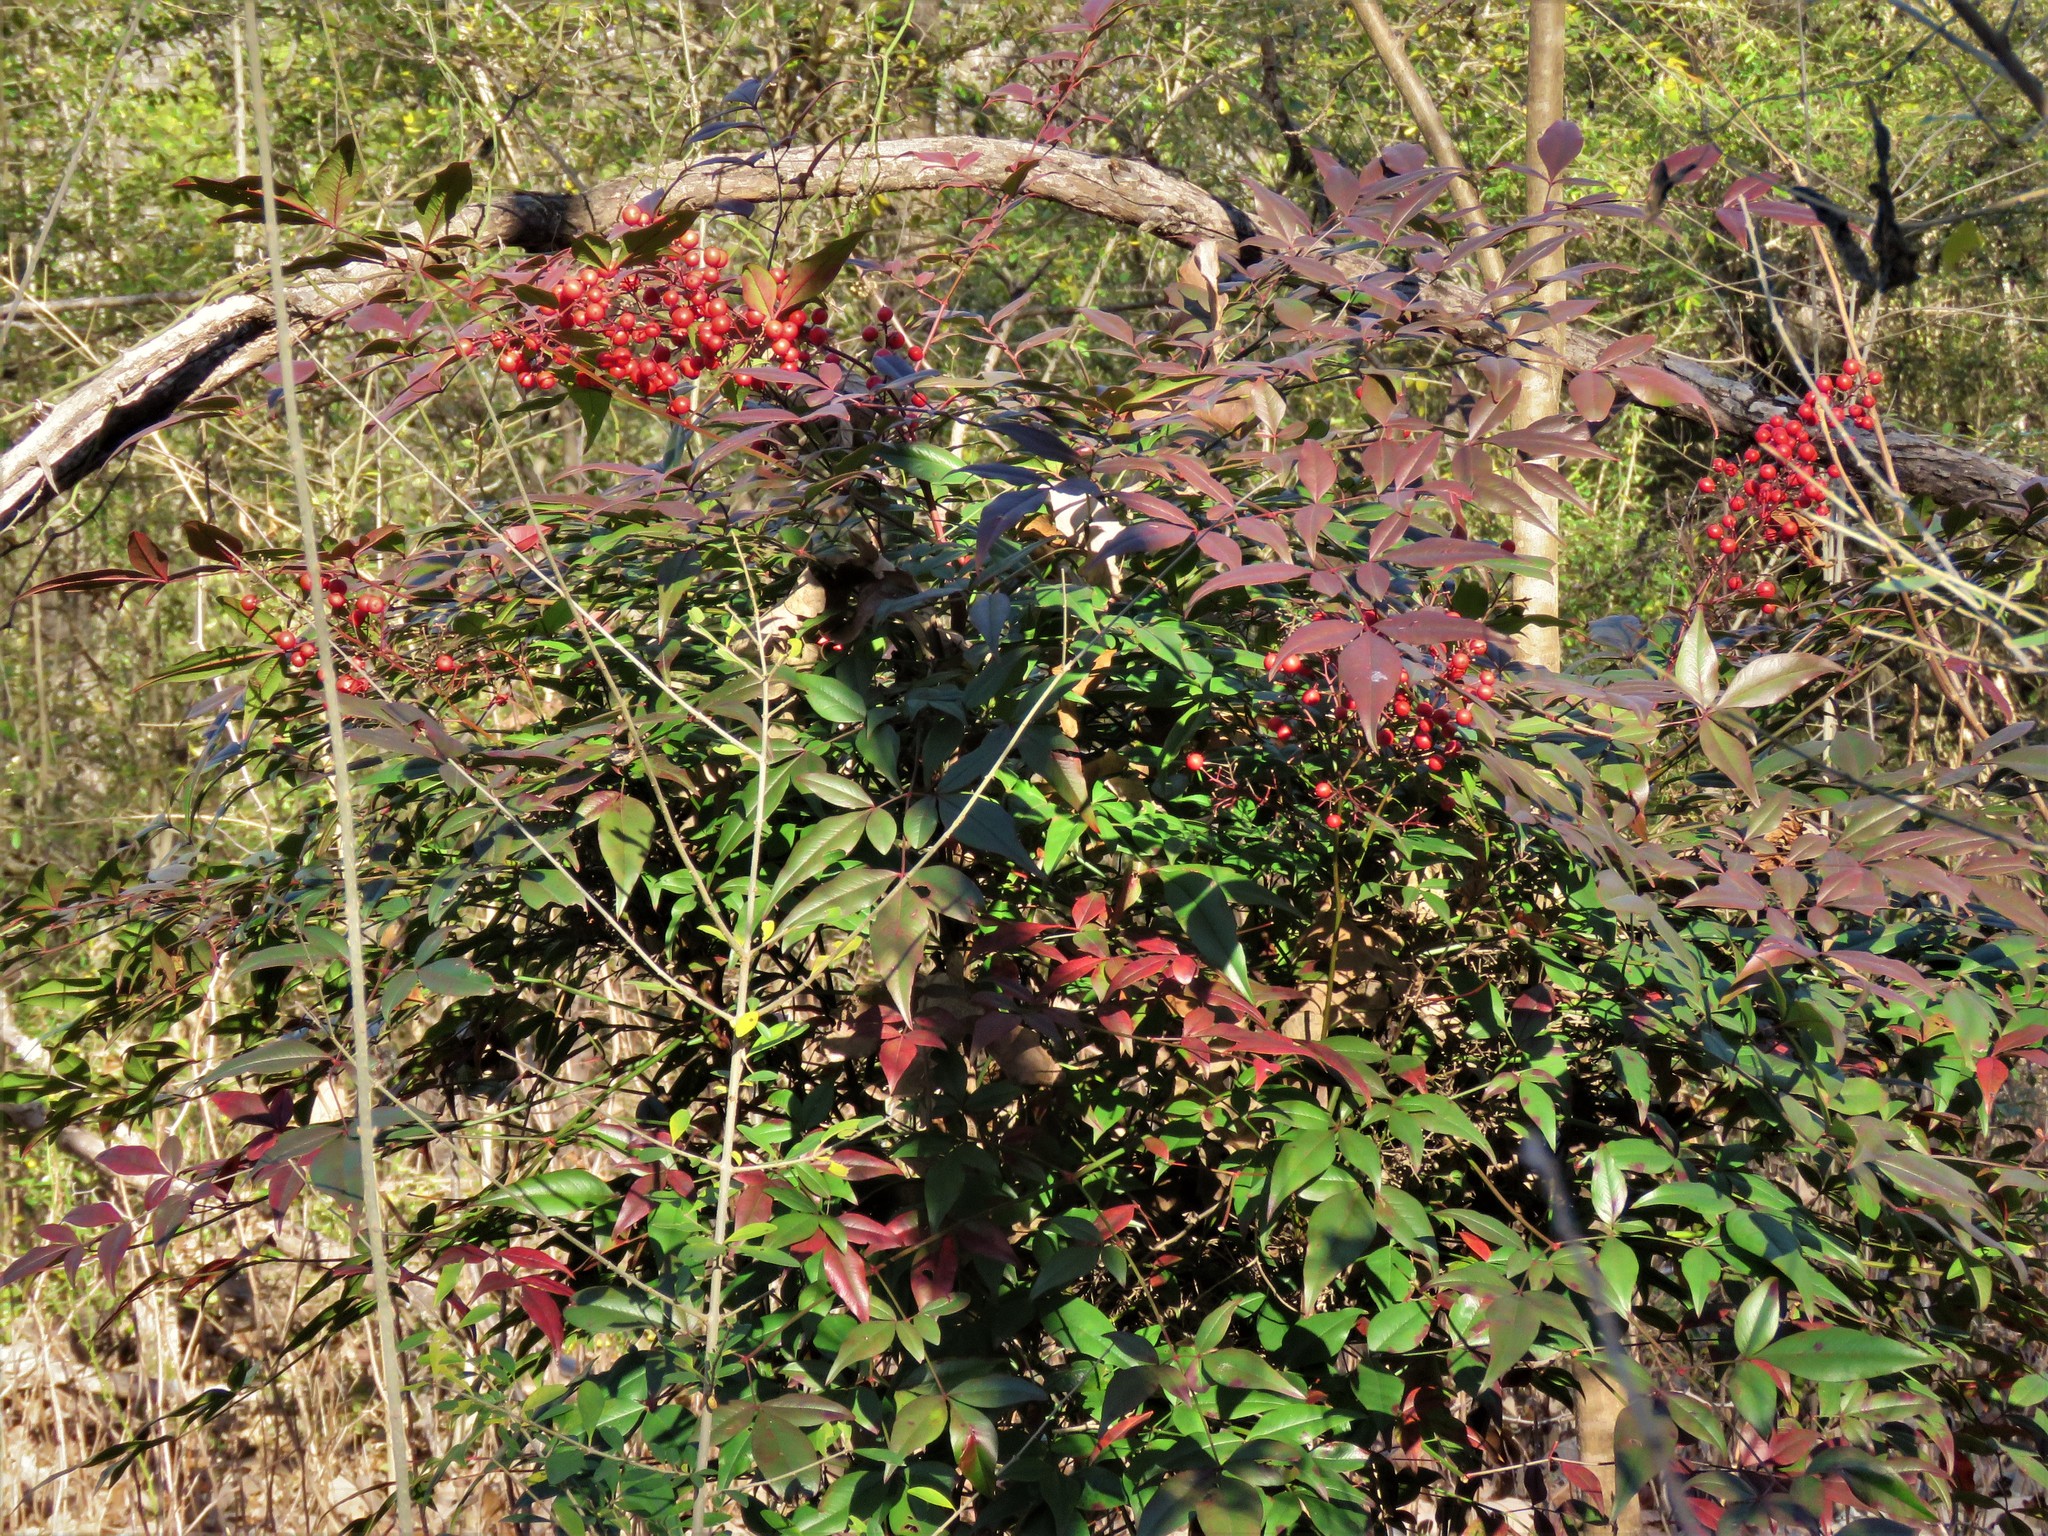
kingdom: Plantae
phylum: Tracheophyta
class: Magnoliopsida
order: Ranunculales
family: Berberidaceae
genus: Nandina
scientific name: Nandina domestica
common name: Sacred bamboo
